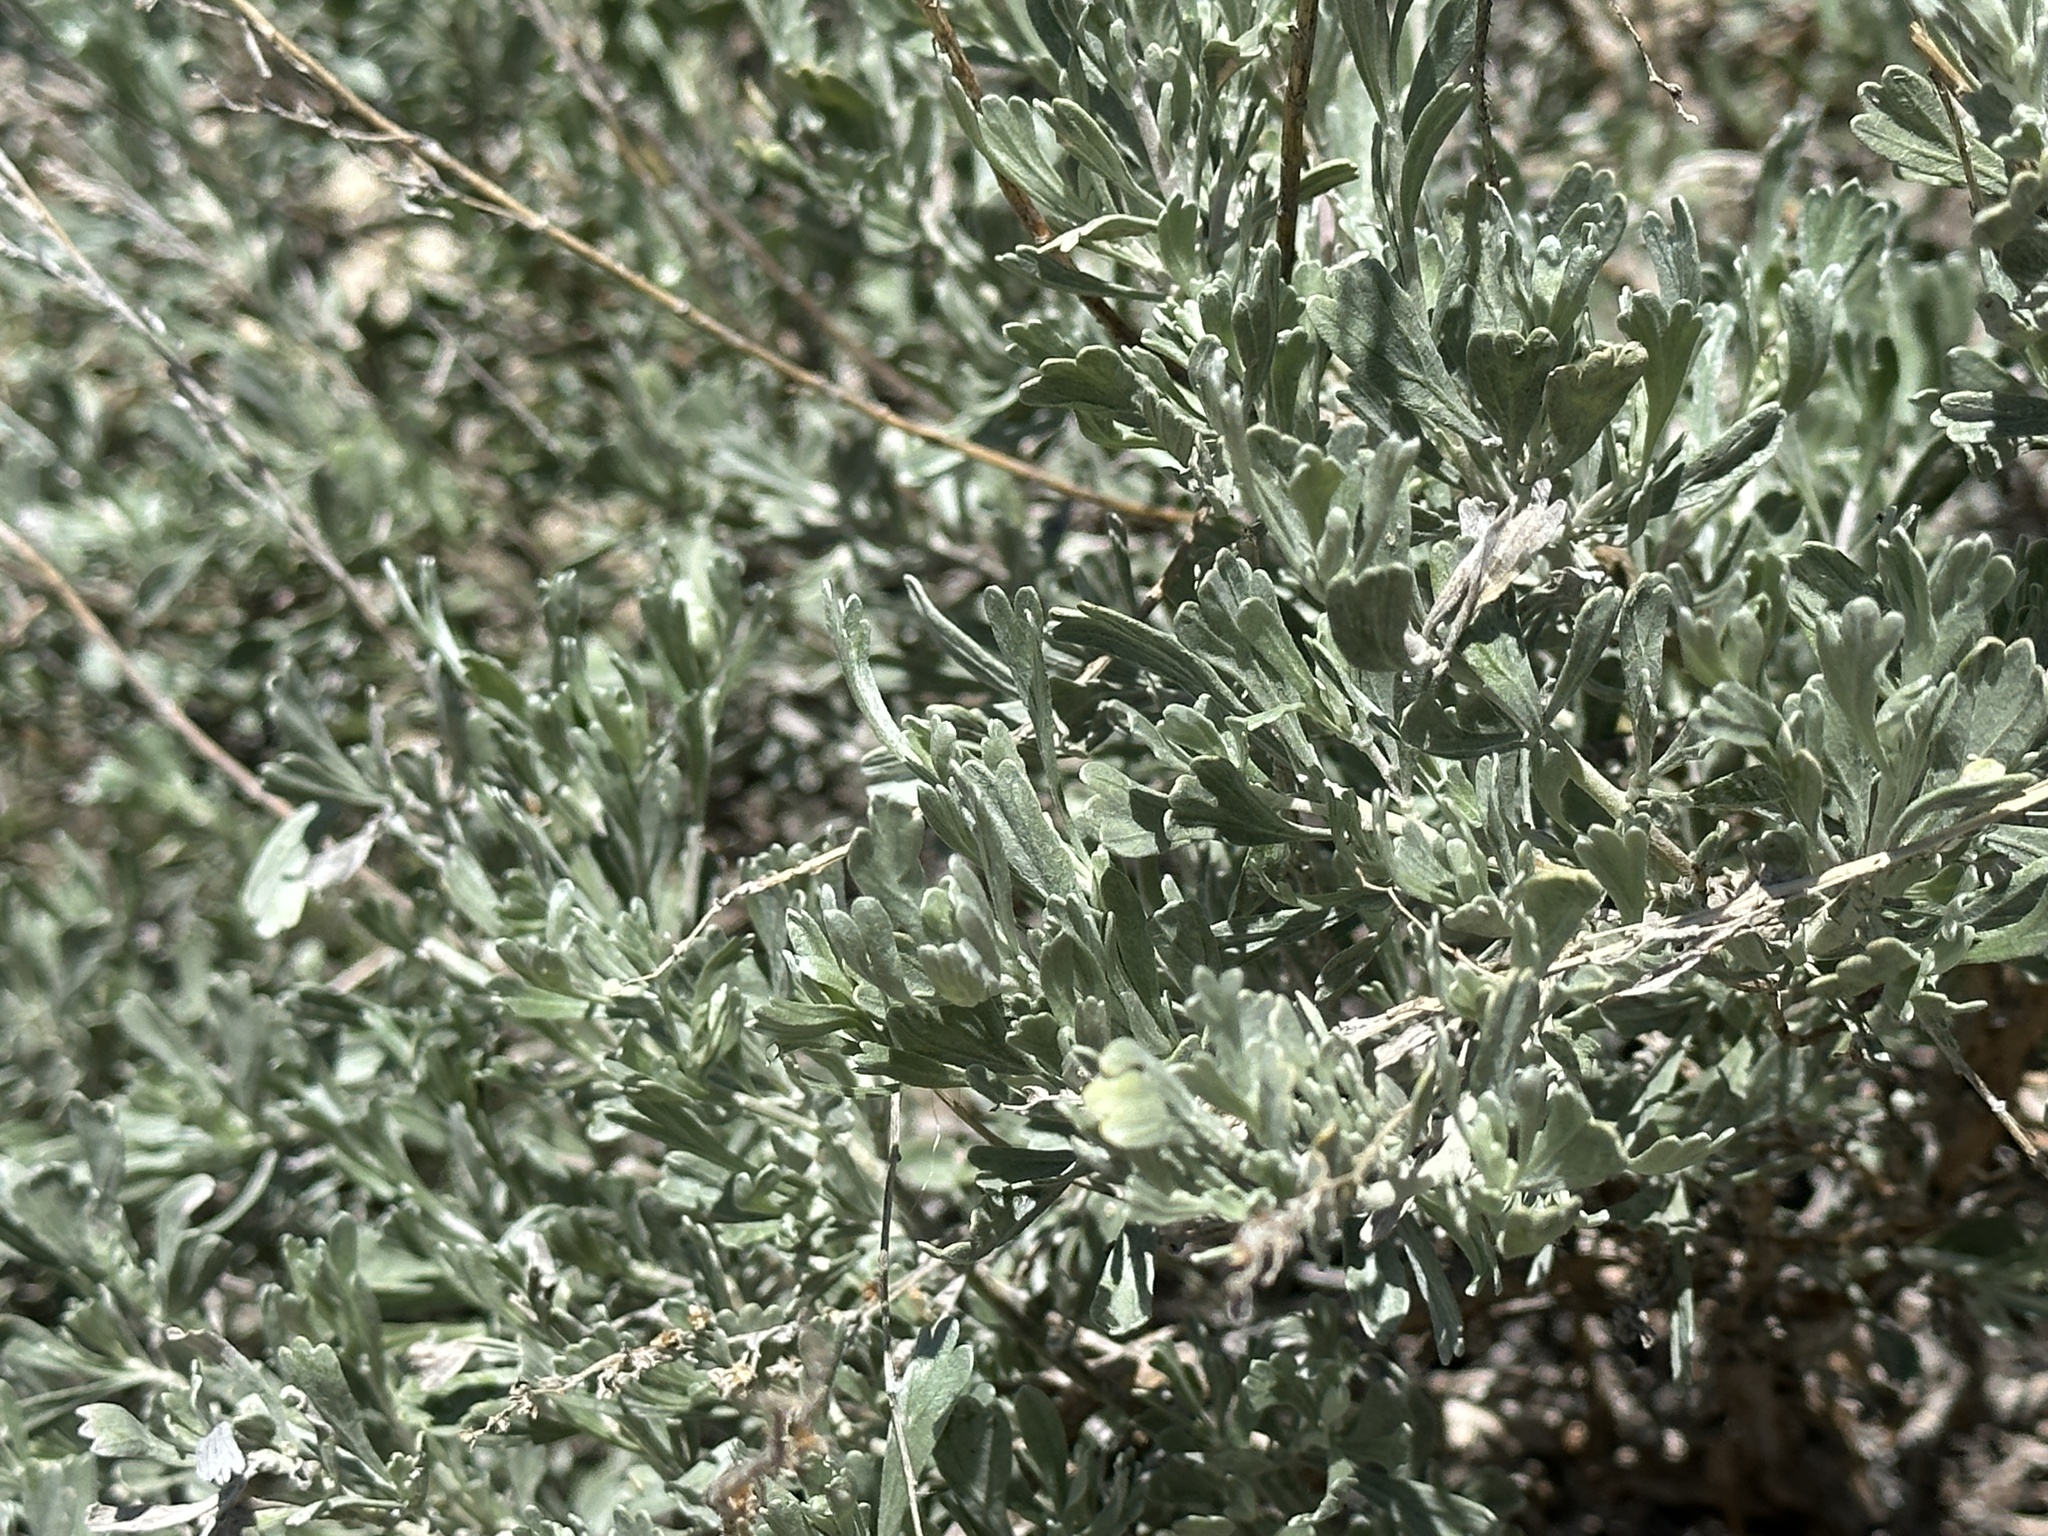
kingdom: Plantae
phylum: Tracheophyta
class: Magnoliopsida
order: Asterales
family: Asteraceae
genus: Artemisia
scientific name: Artemisia tridentata
